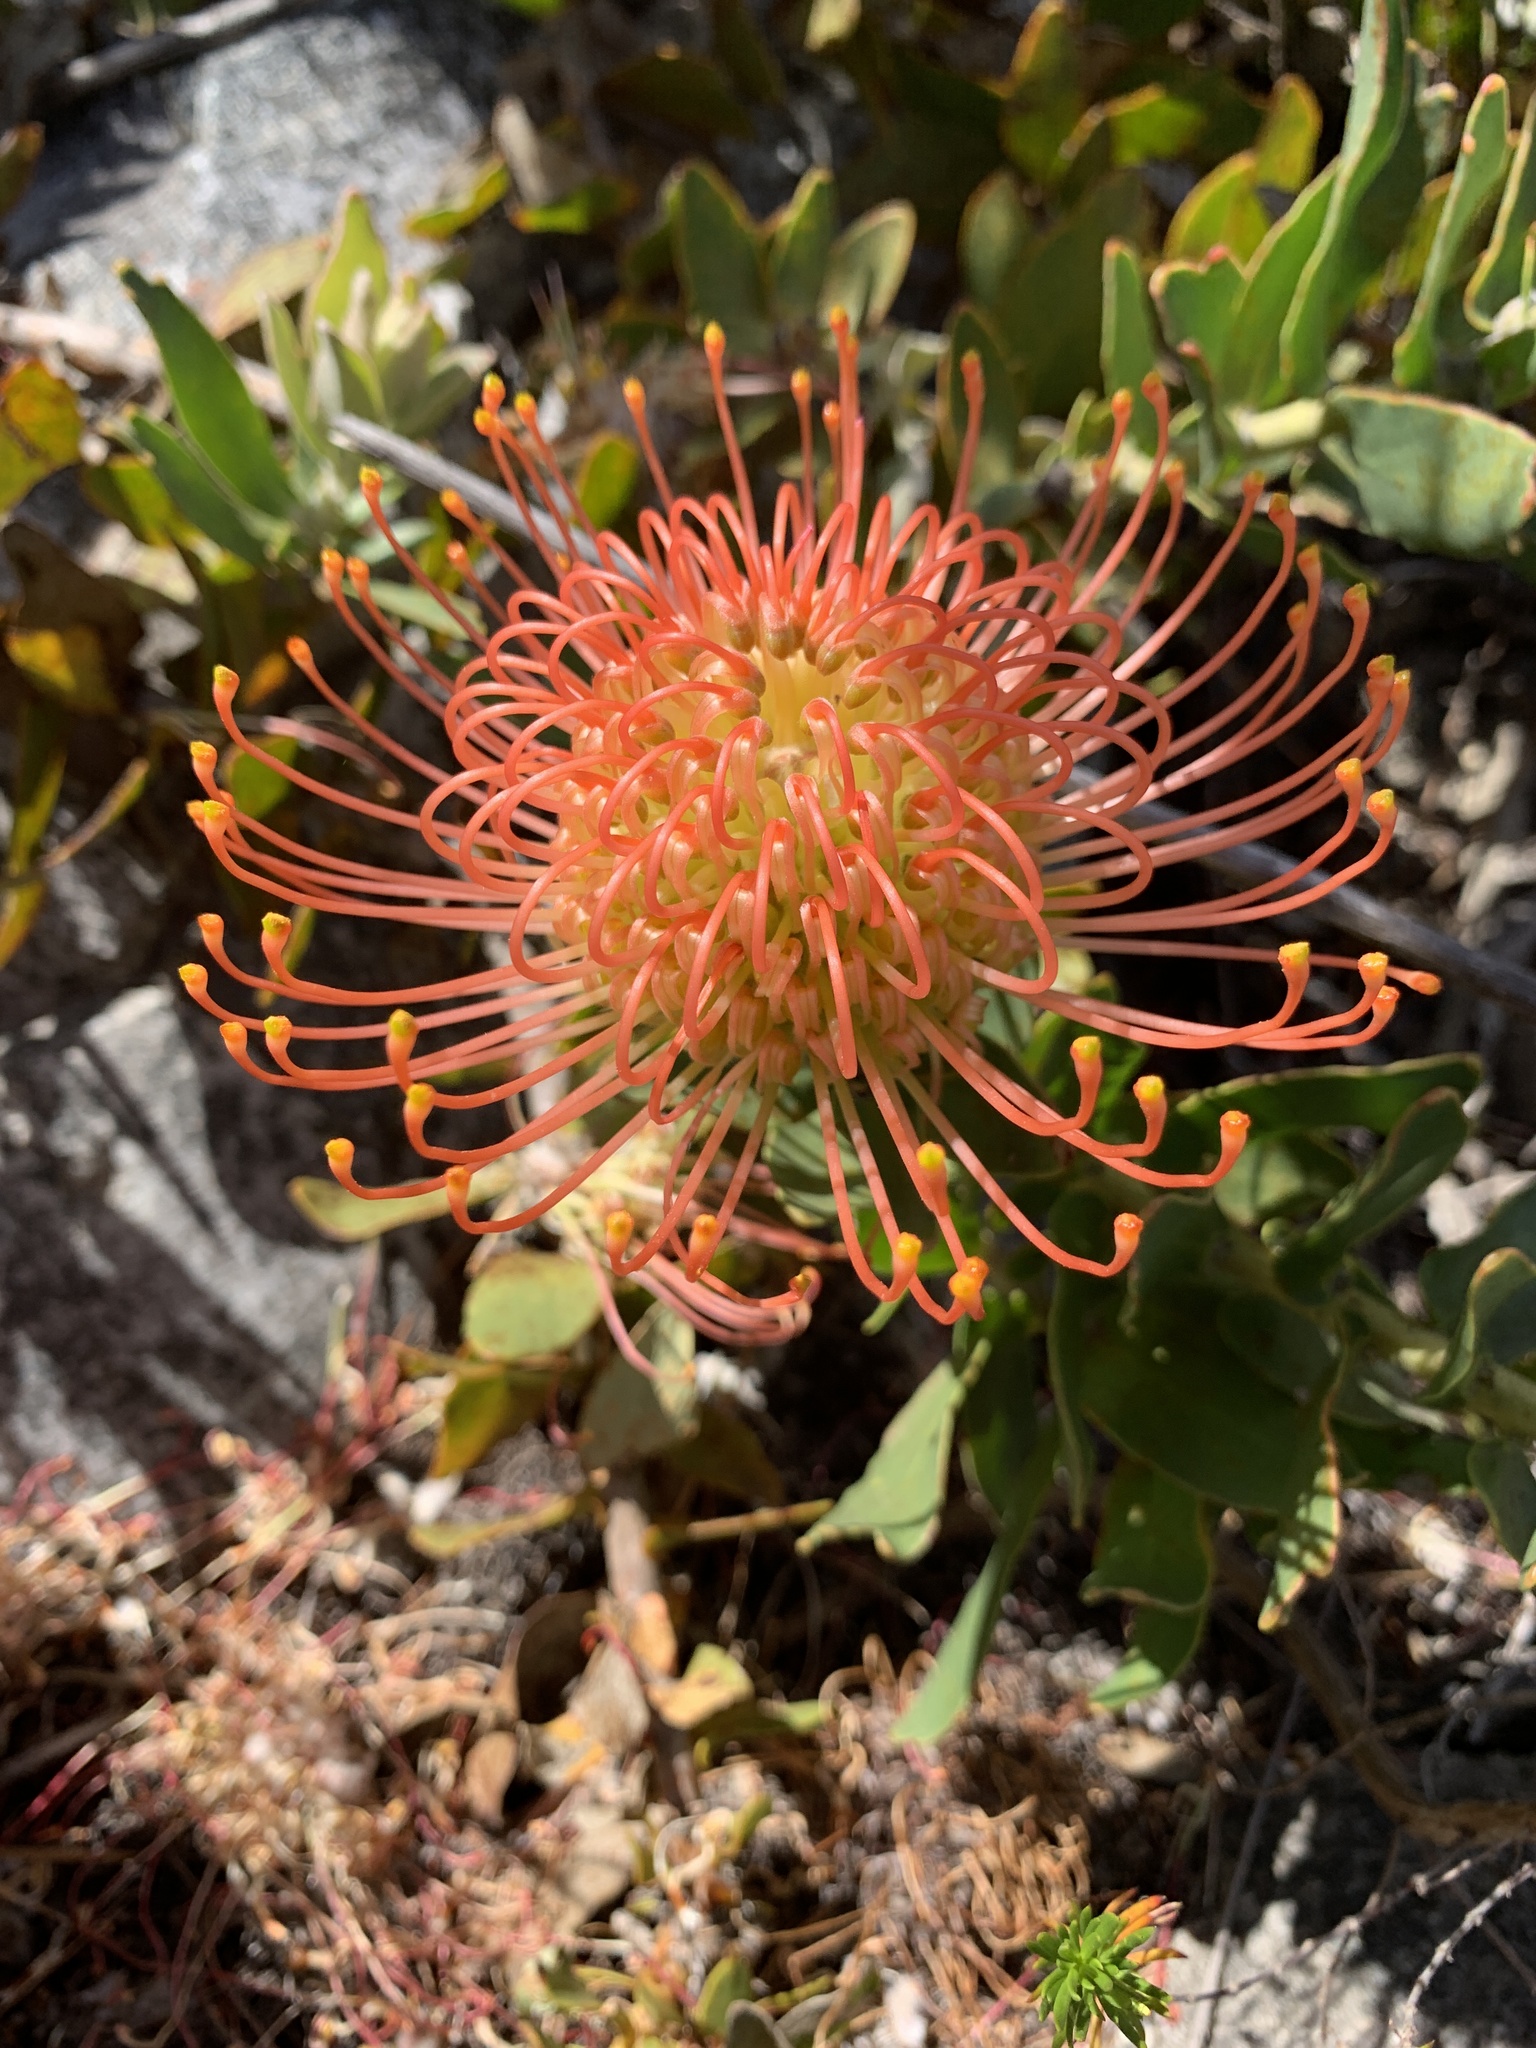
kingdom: Plantae
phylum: Tracheophyta
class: Magnoliopsida
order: Proteales
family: Proteaceae
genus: Leucospermum
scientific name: Leucospermum cordifolium
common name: Red pincushion-protea
